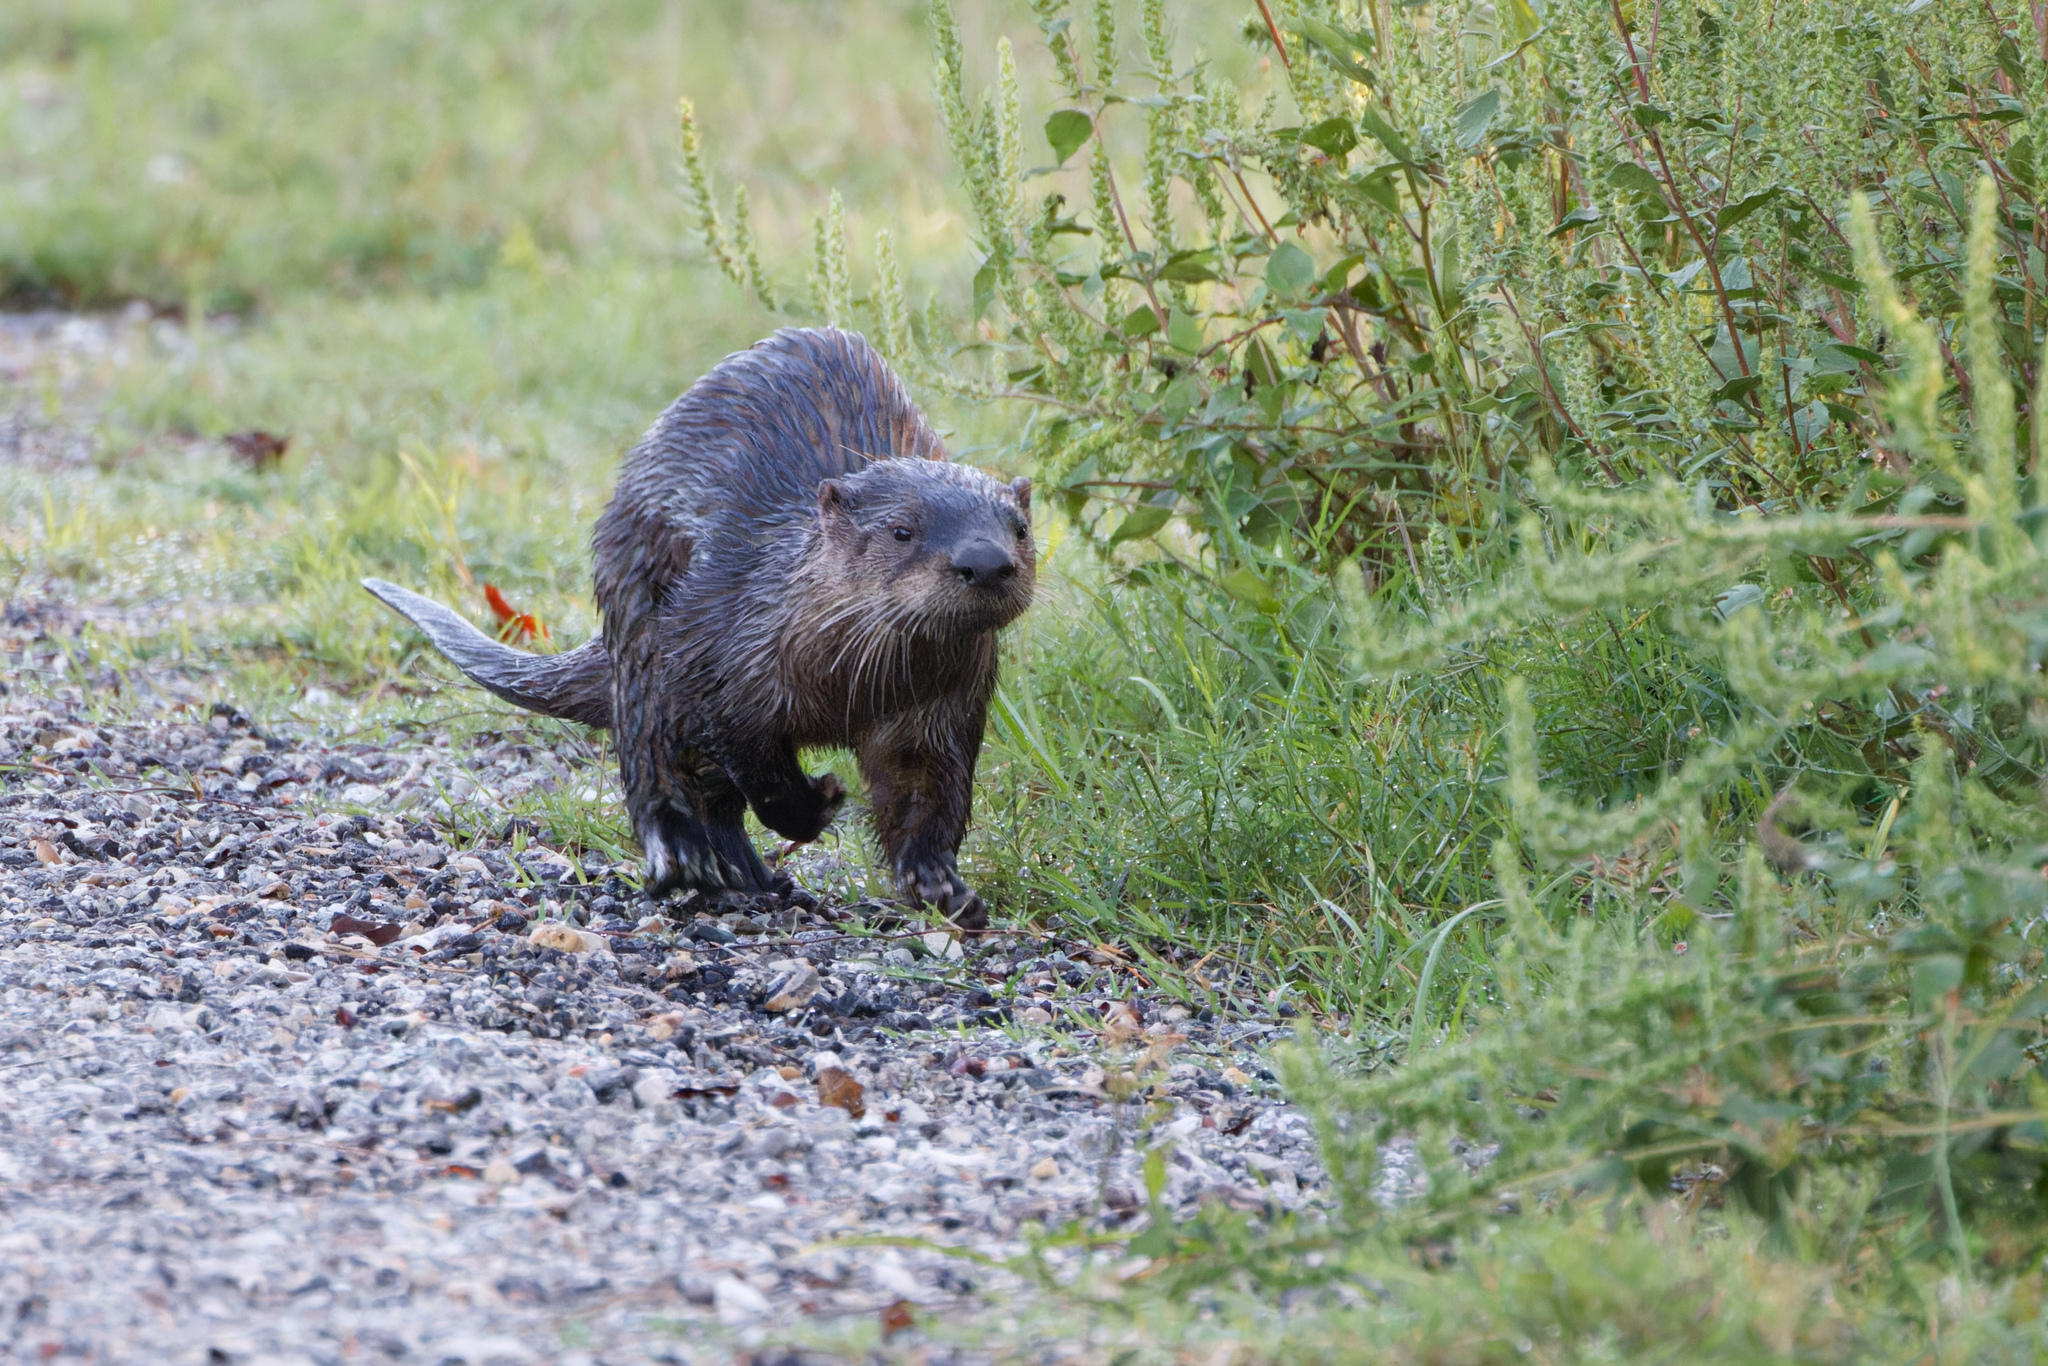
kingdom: Animalia
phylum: Chordata
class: Mammalia
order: Carnivora
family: Mustelidae
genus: Lontra
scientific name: Lontra canadensis
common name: North american river otter
